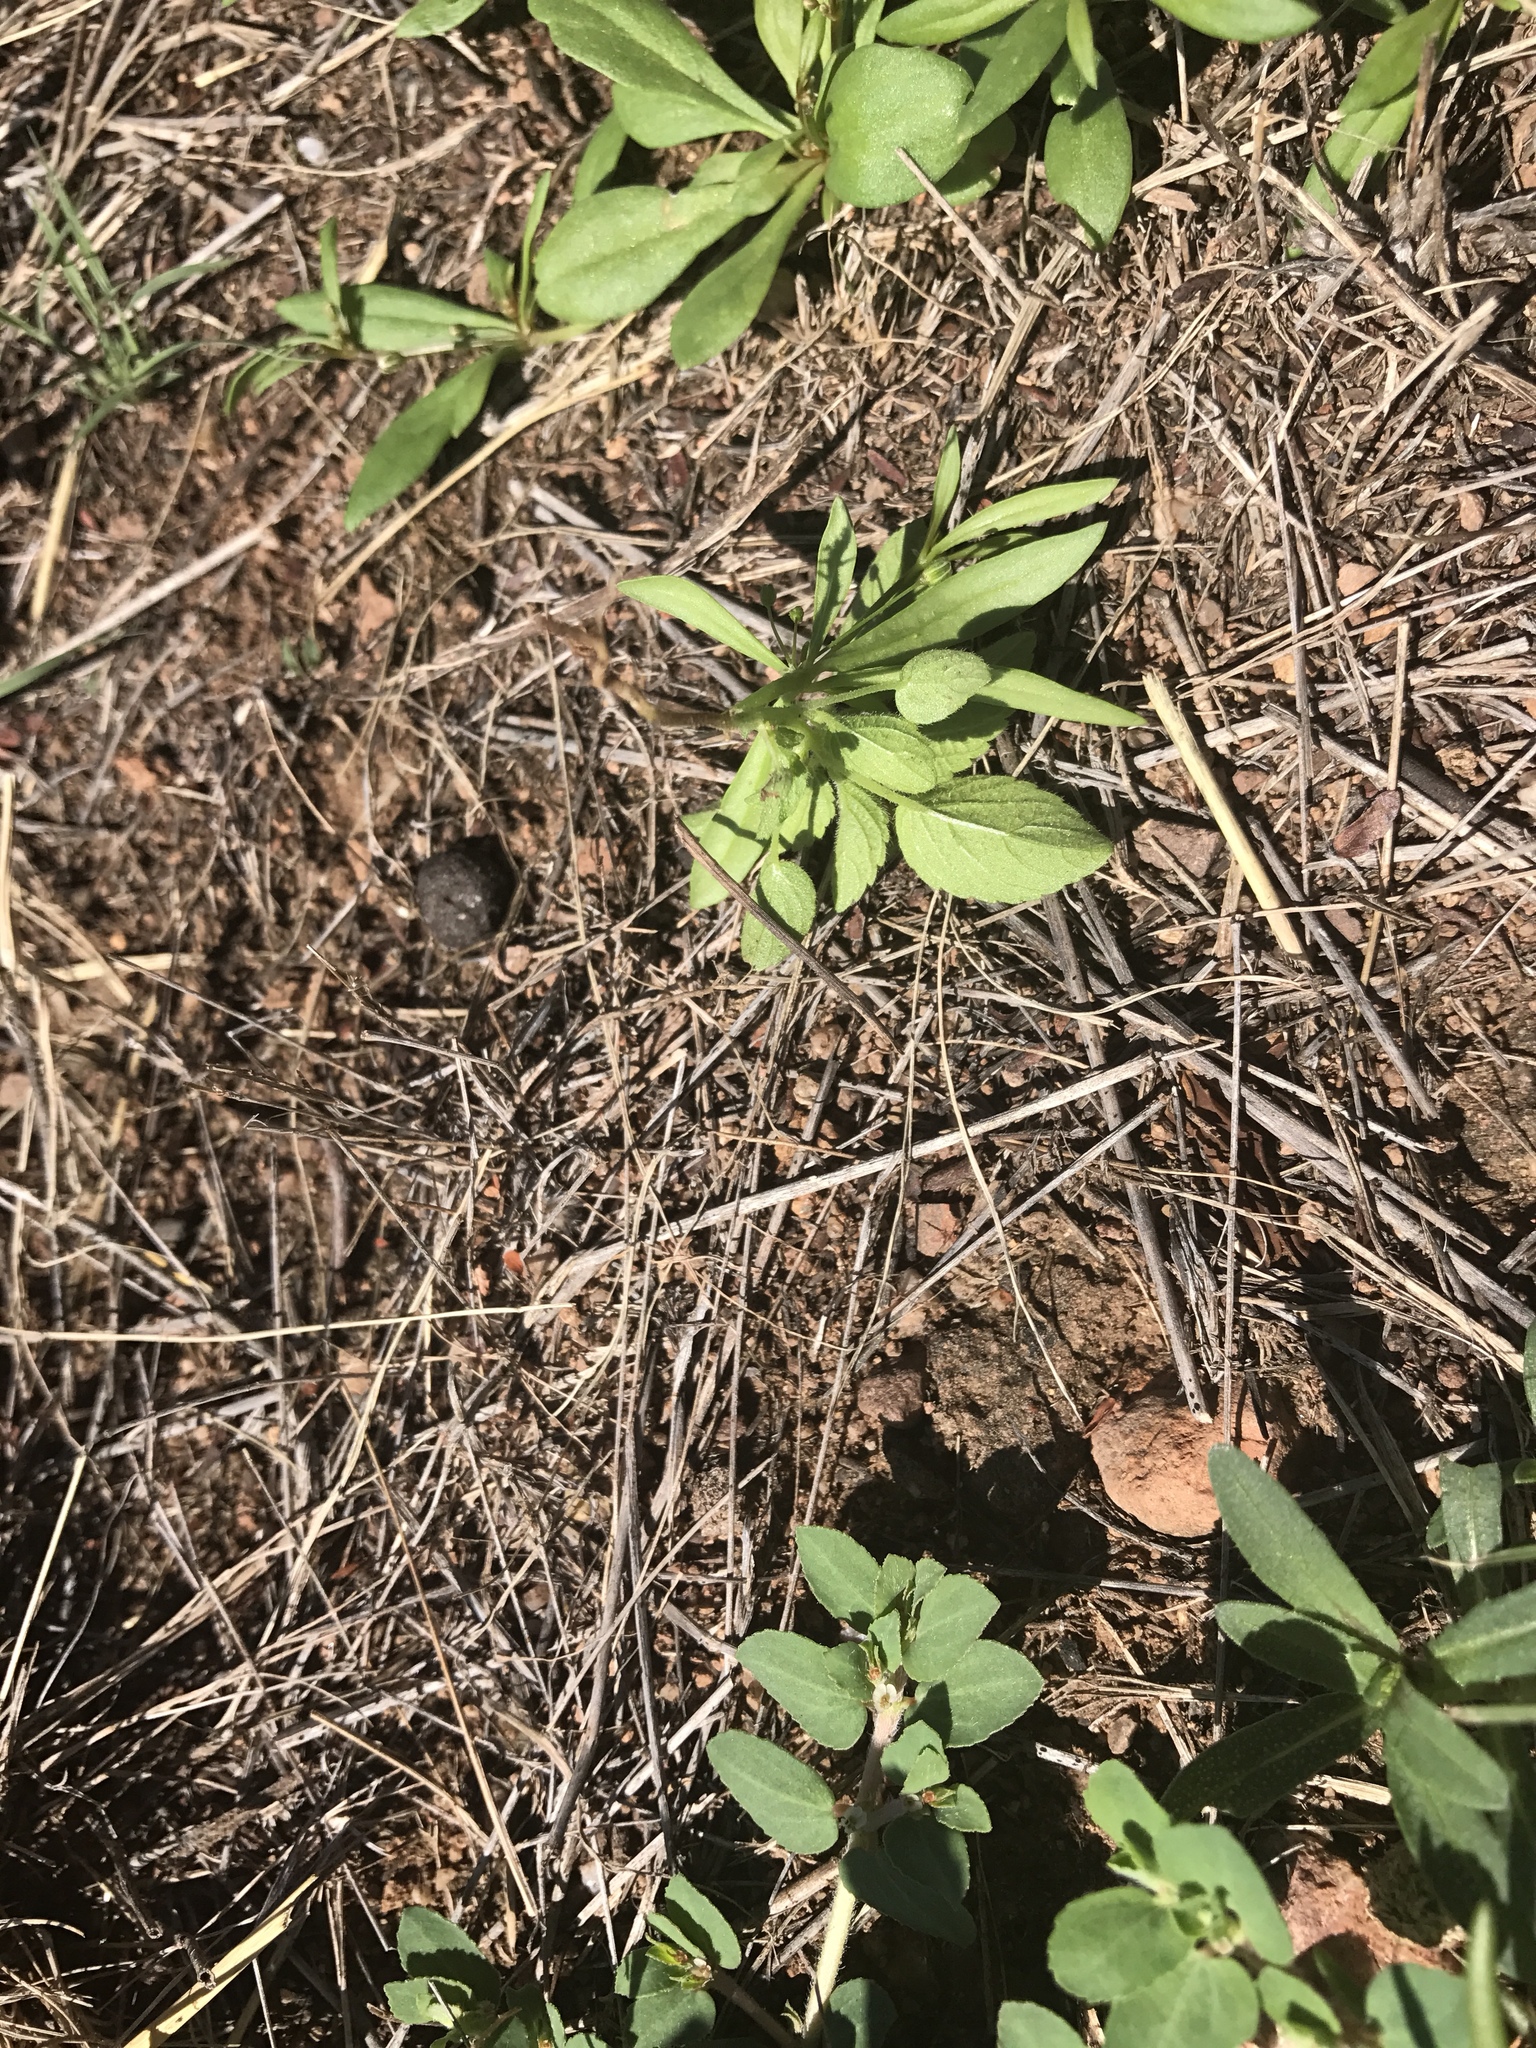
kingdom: Plantae
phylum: Tracheophyta
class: Magnoliopsida
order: Caryophyllales
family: Molluginaceae
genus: Mollugo
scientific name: Mollugo verticillata
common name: Green carpetweed
